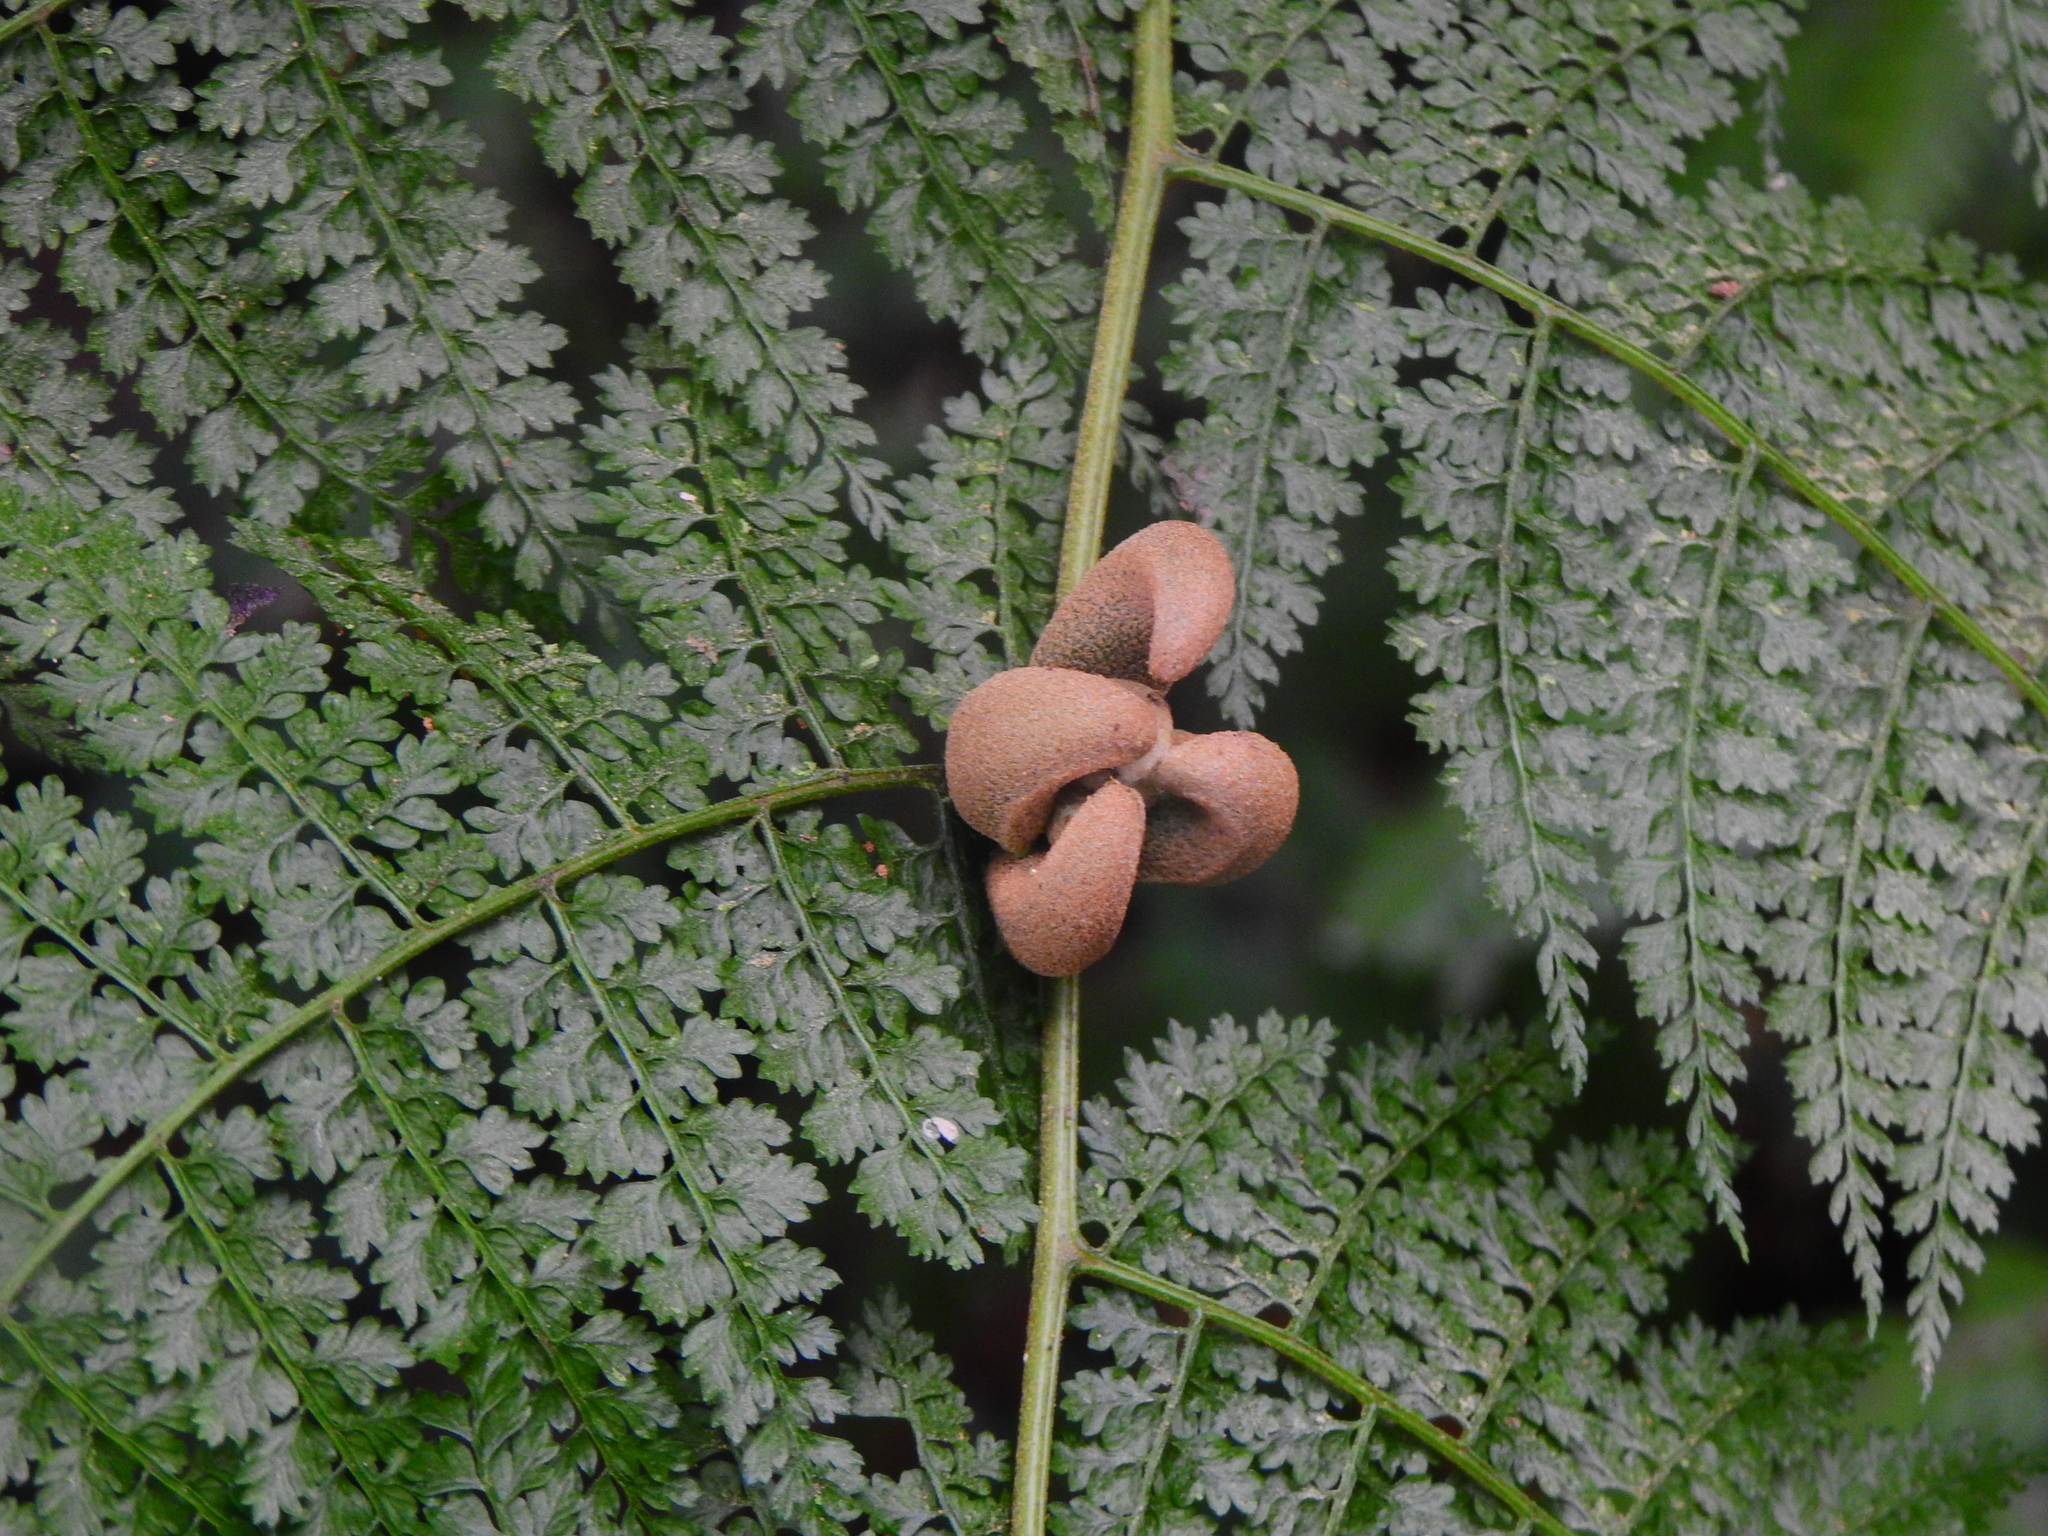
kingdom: Plantae
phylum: Tracheophyta
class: Polypodiopsida
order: Polypodiales
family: Dennstaedtiaceae
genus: Monachosorum
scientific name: Monachosorum henryi
